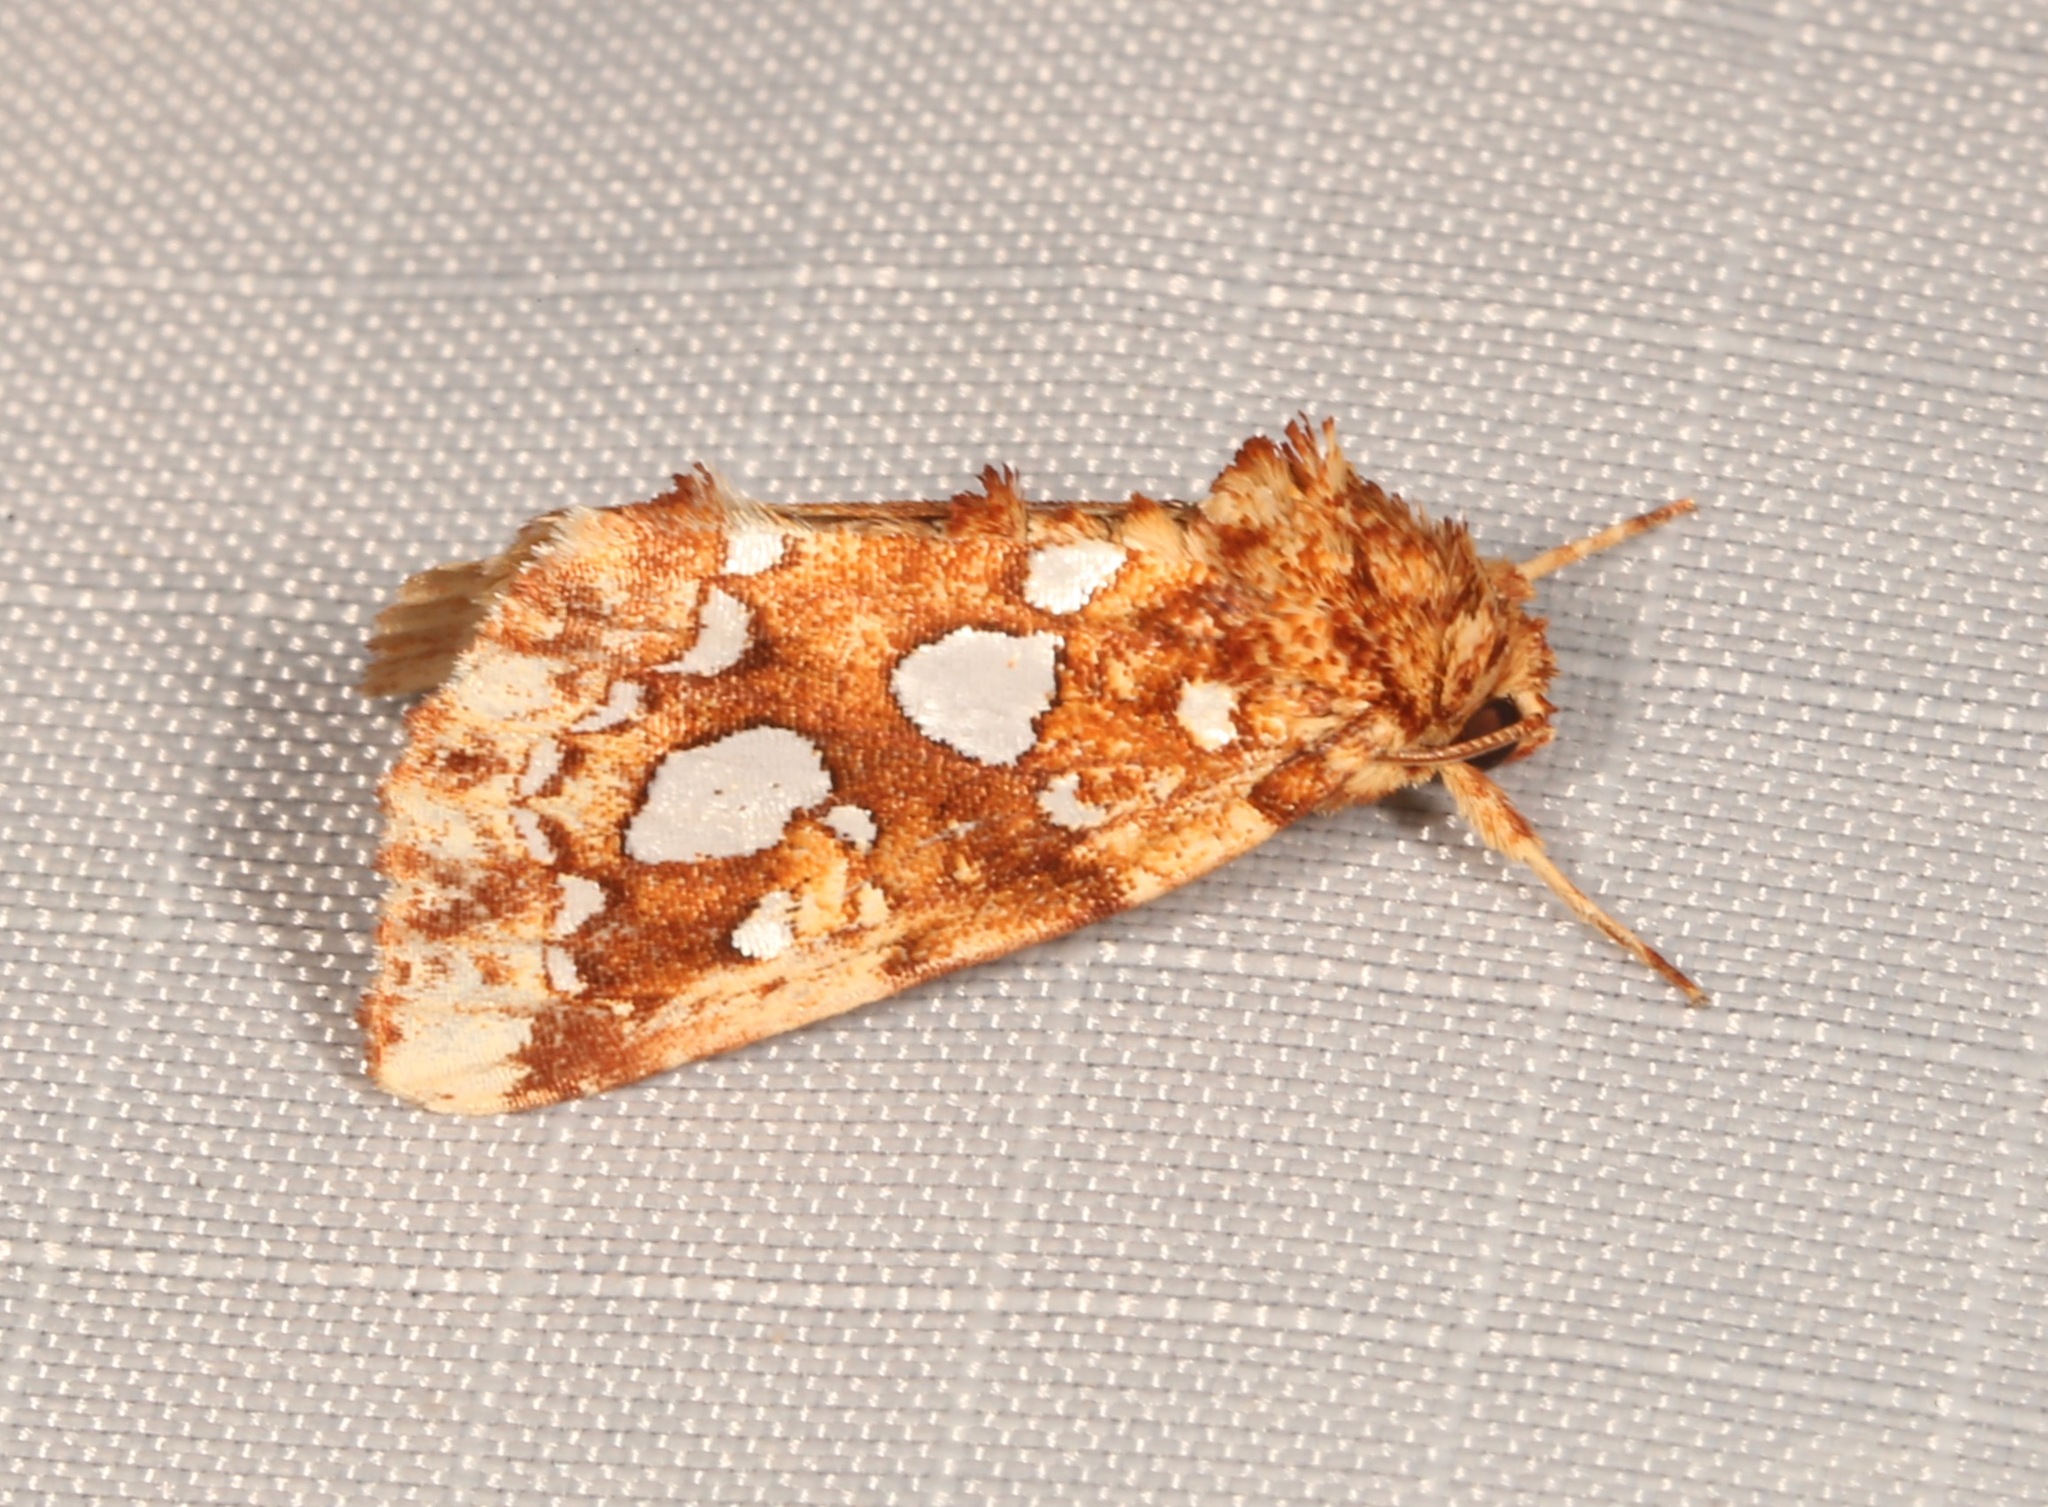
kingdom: Animalia
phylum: Arthropoda
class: Insecta
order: Lepidoptera
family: Noctuidae
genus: Callopistria
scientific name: Callopistria cordata
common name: Silver-spotted fern moth
